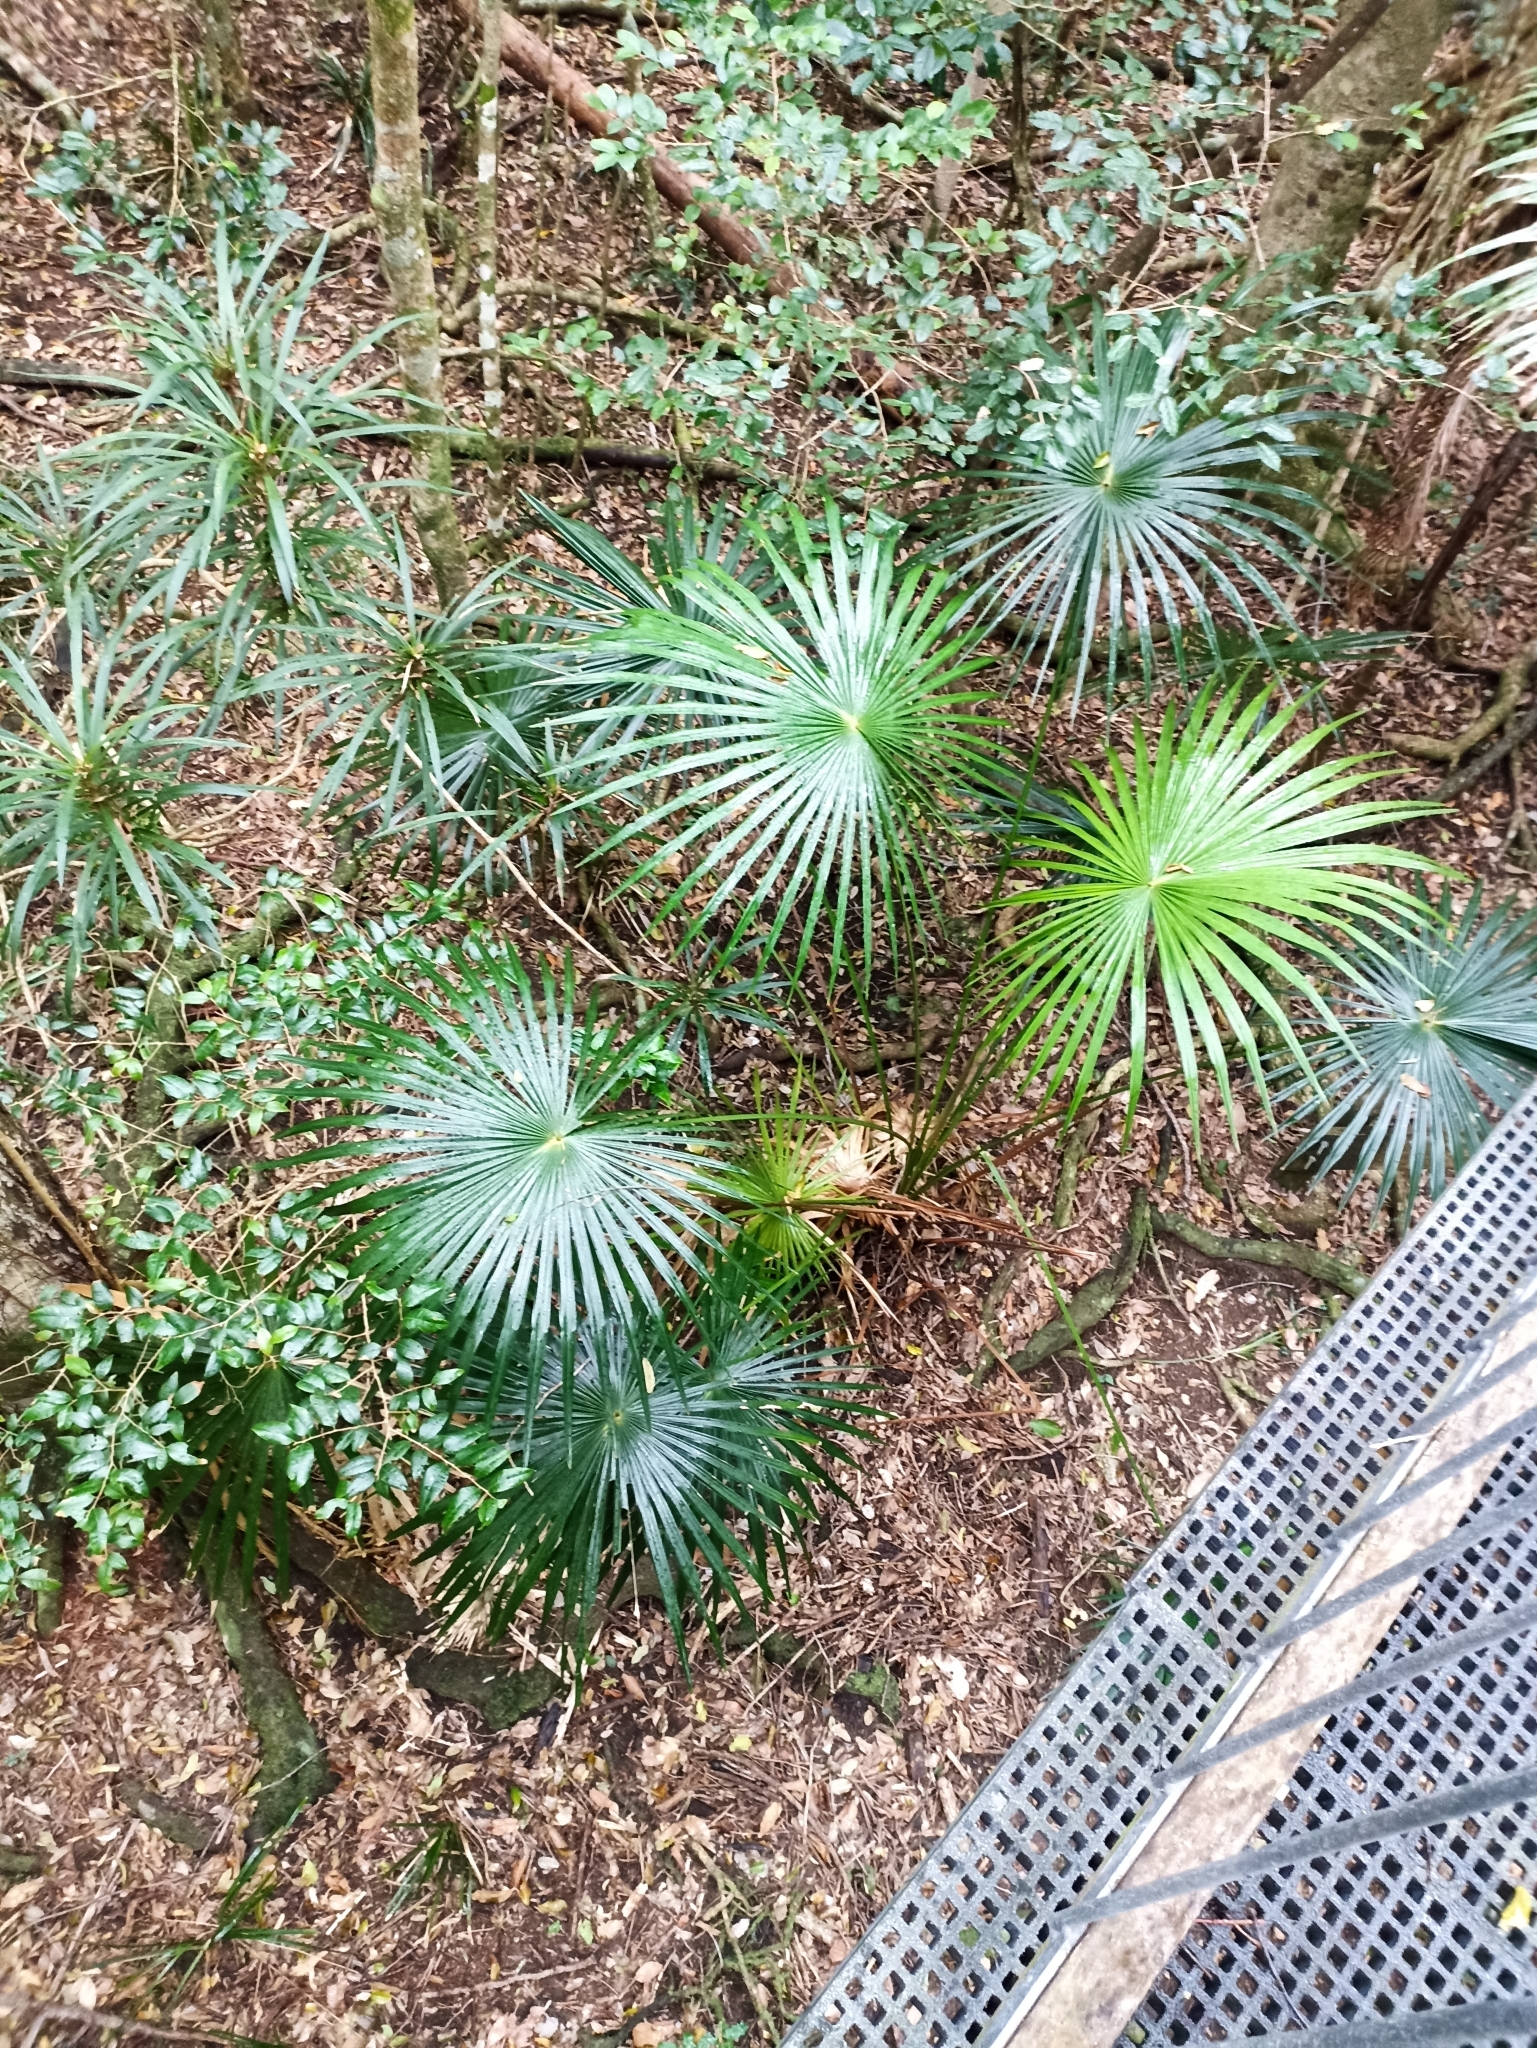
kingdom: Plantae
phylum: Tracheophyta
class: Liliopsida
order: Arecales
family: Arecaceae
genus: Livistona
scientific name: Livistona australis
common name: Cabbage fan palm
